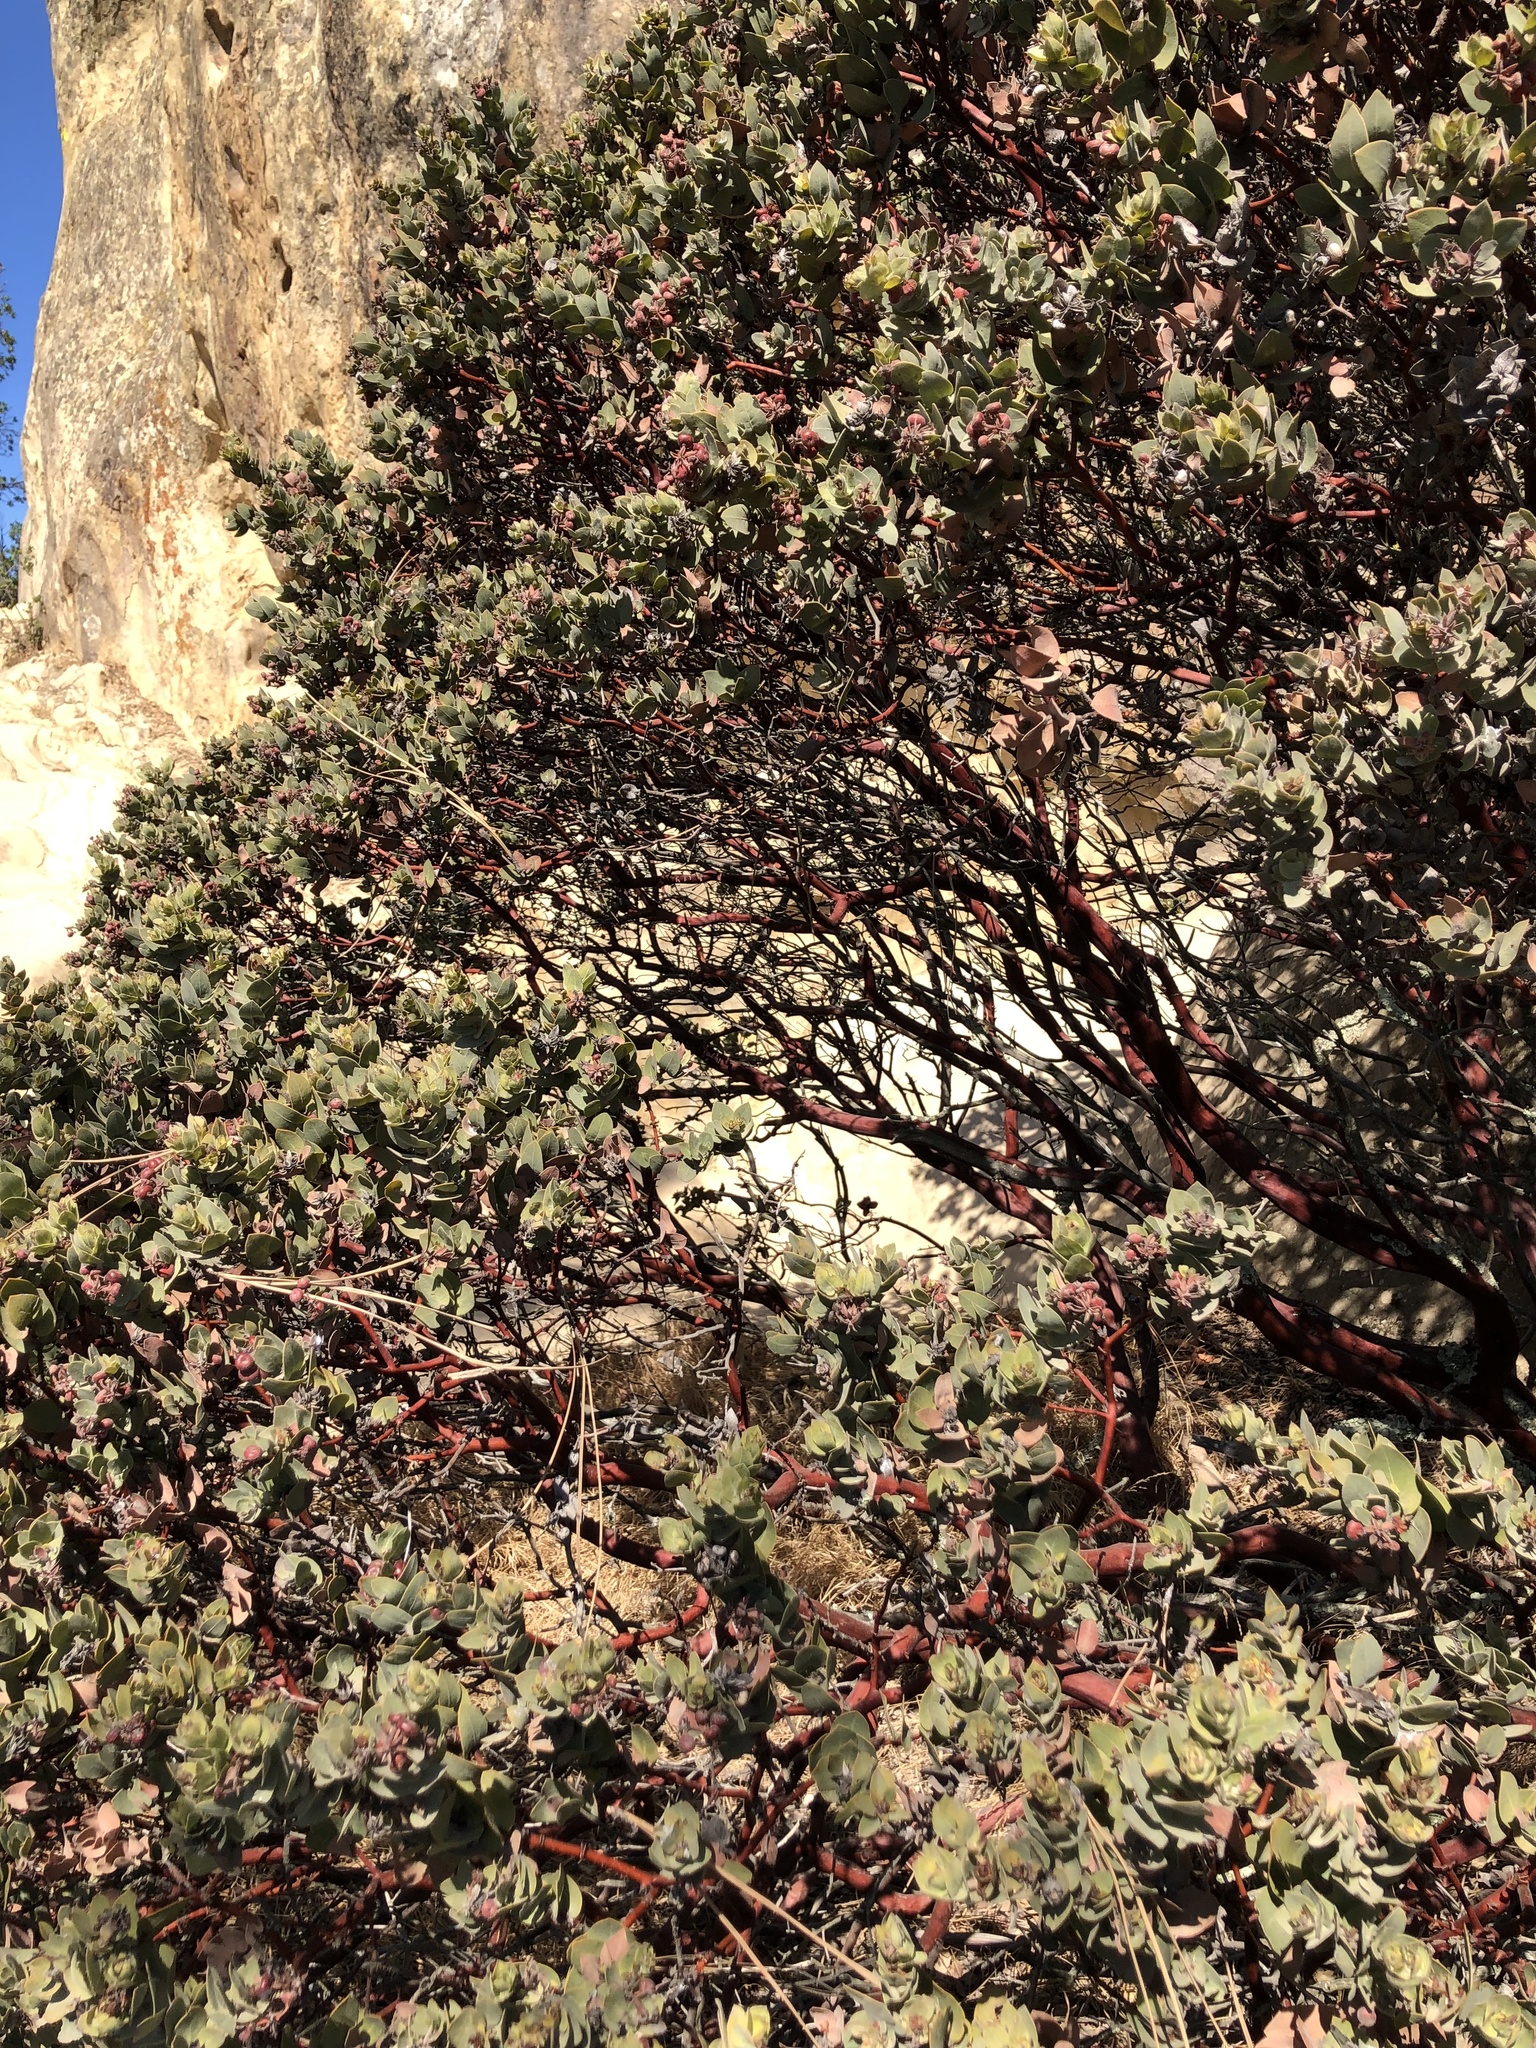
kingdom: Plantae
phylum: Tracheophyta
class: Magnoliopsida
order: Ericales
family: Ericaceae
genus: Arctostaphylos
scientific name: Arctostaphylos auriculata
